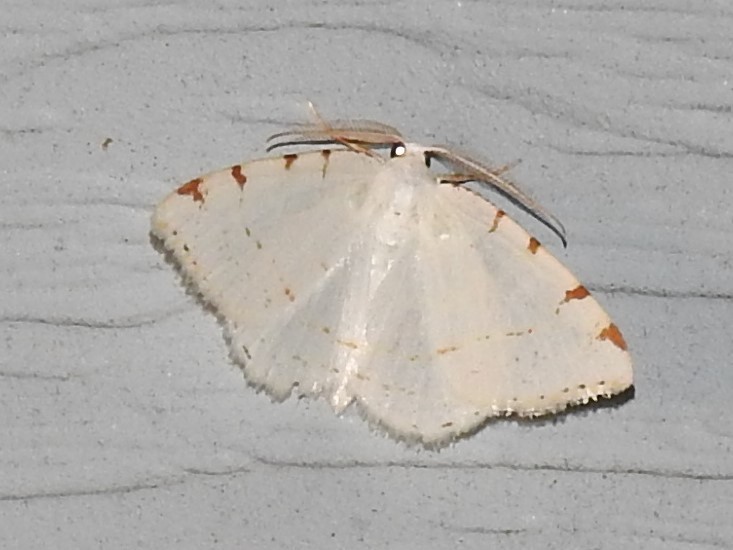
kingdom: Animalia
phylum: Arthropoda
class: Insecta
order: Lepidoptera
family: Geometridae
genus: Macaria
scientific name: Macaria pustularia
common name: Lesser maple spanworm moth
